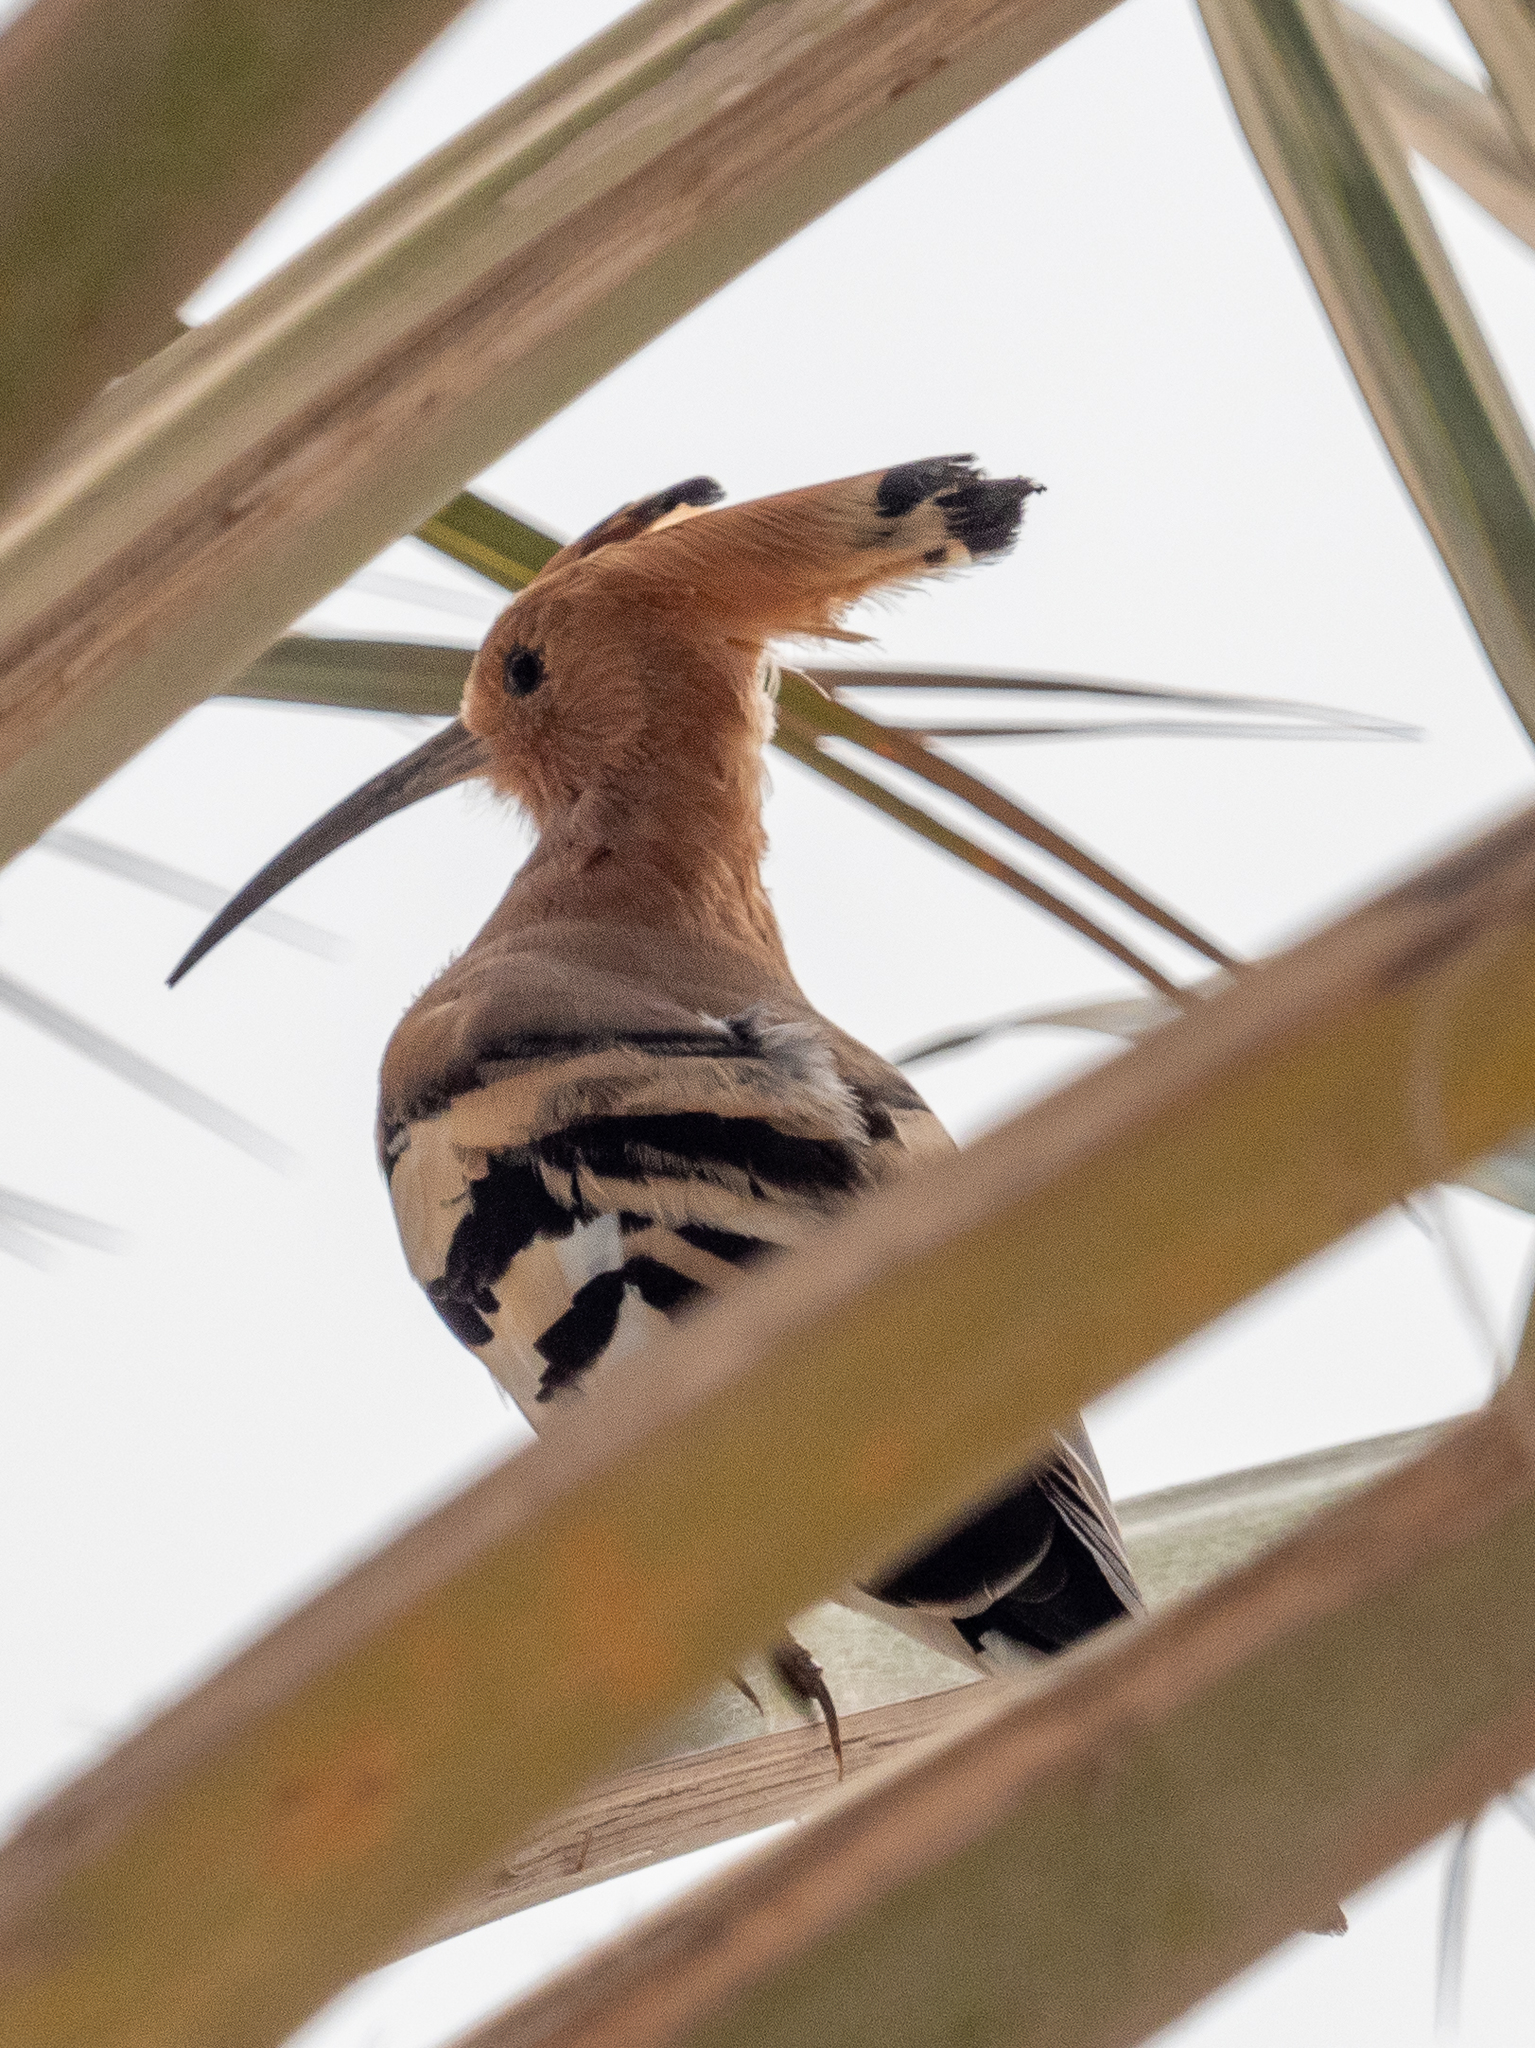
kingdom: Animalia
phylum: Chordata
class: Aves
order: Bucerotiformes
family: Upupidae
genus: Upupa
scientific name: Upupa epops
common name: Eurasian hoopoe
